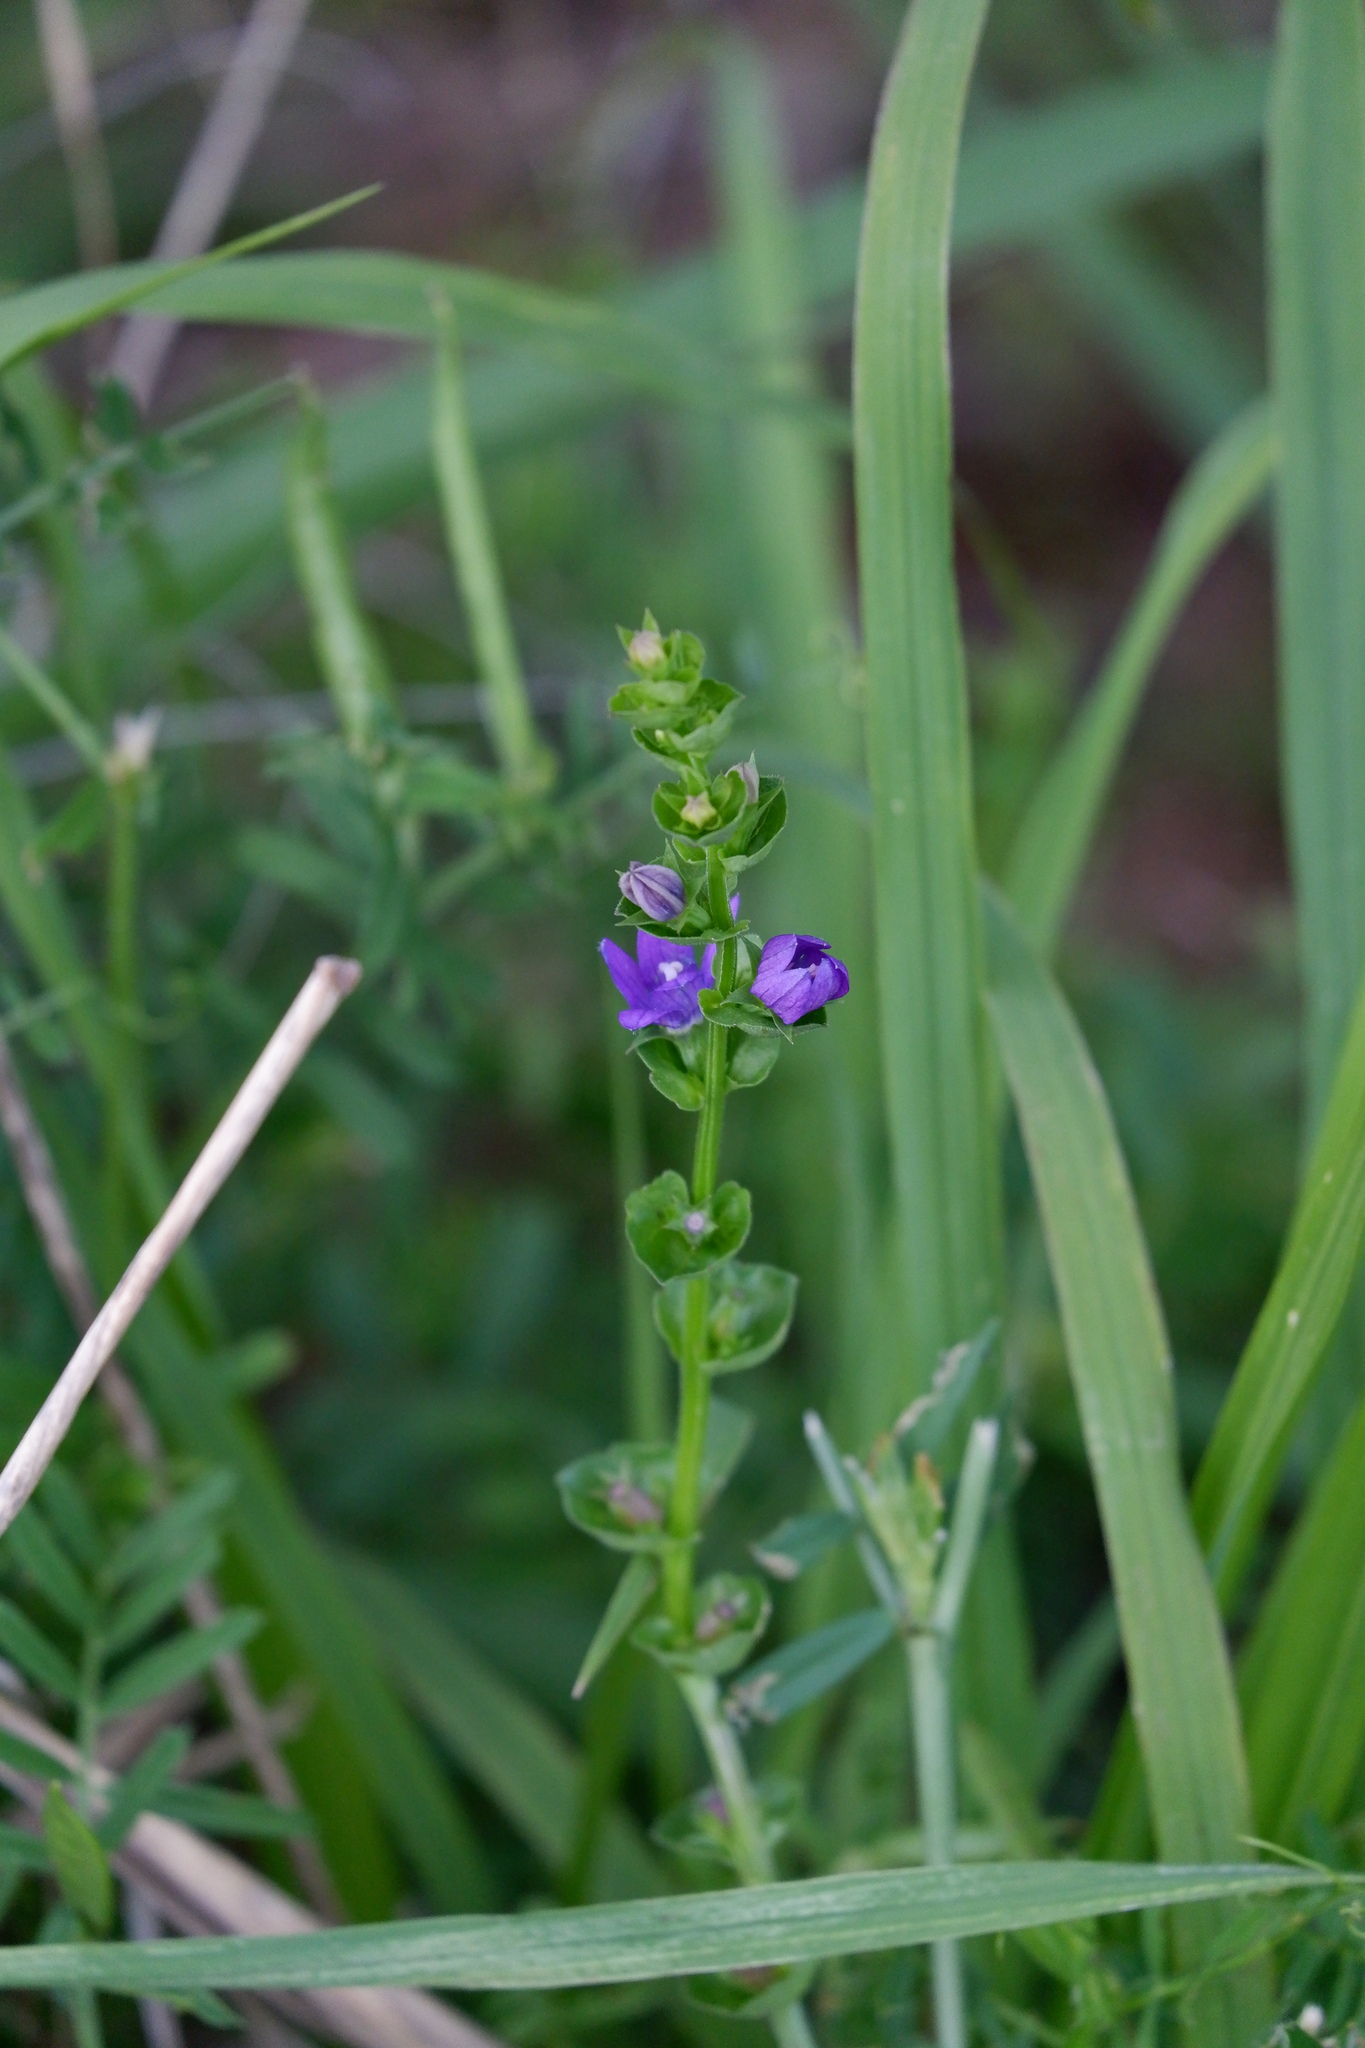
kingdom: Plantae
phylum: Tracheophyta
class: Magnoliopsida
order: Asterales
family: Campanulaceae
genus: Triodanis
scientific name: Triodanis perfoliata
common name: Clasping venus' looking-glass
